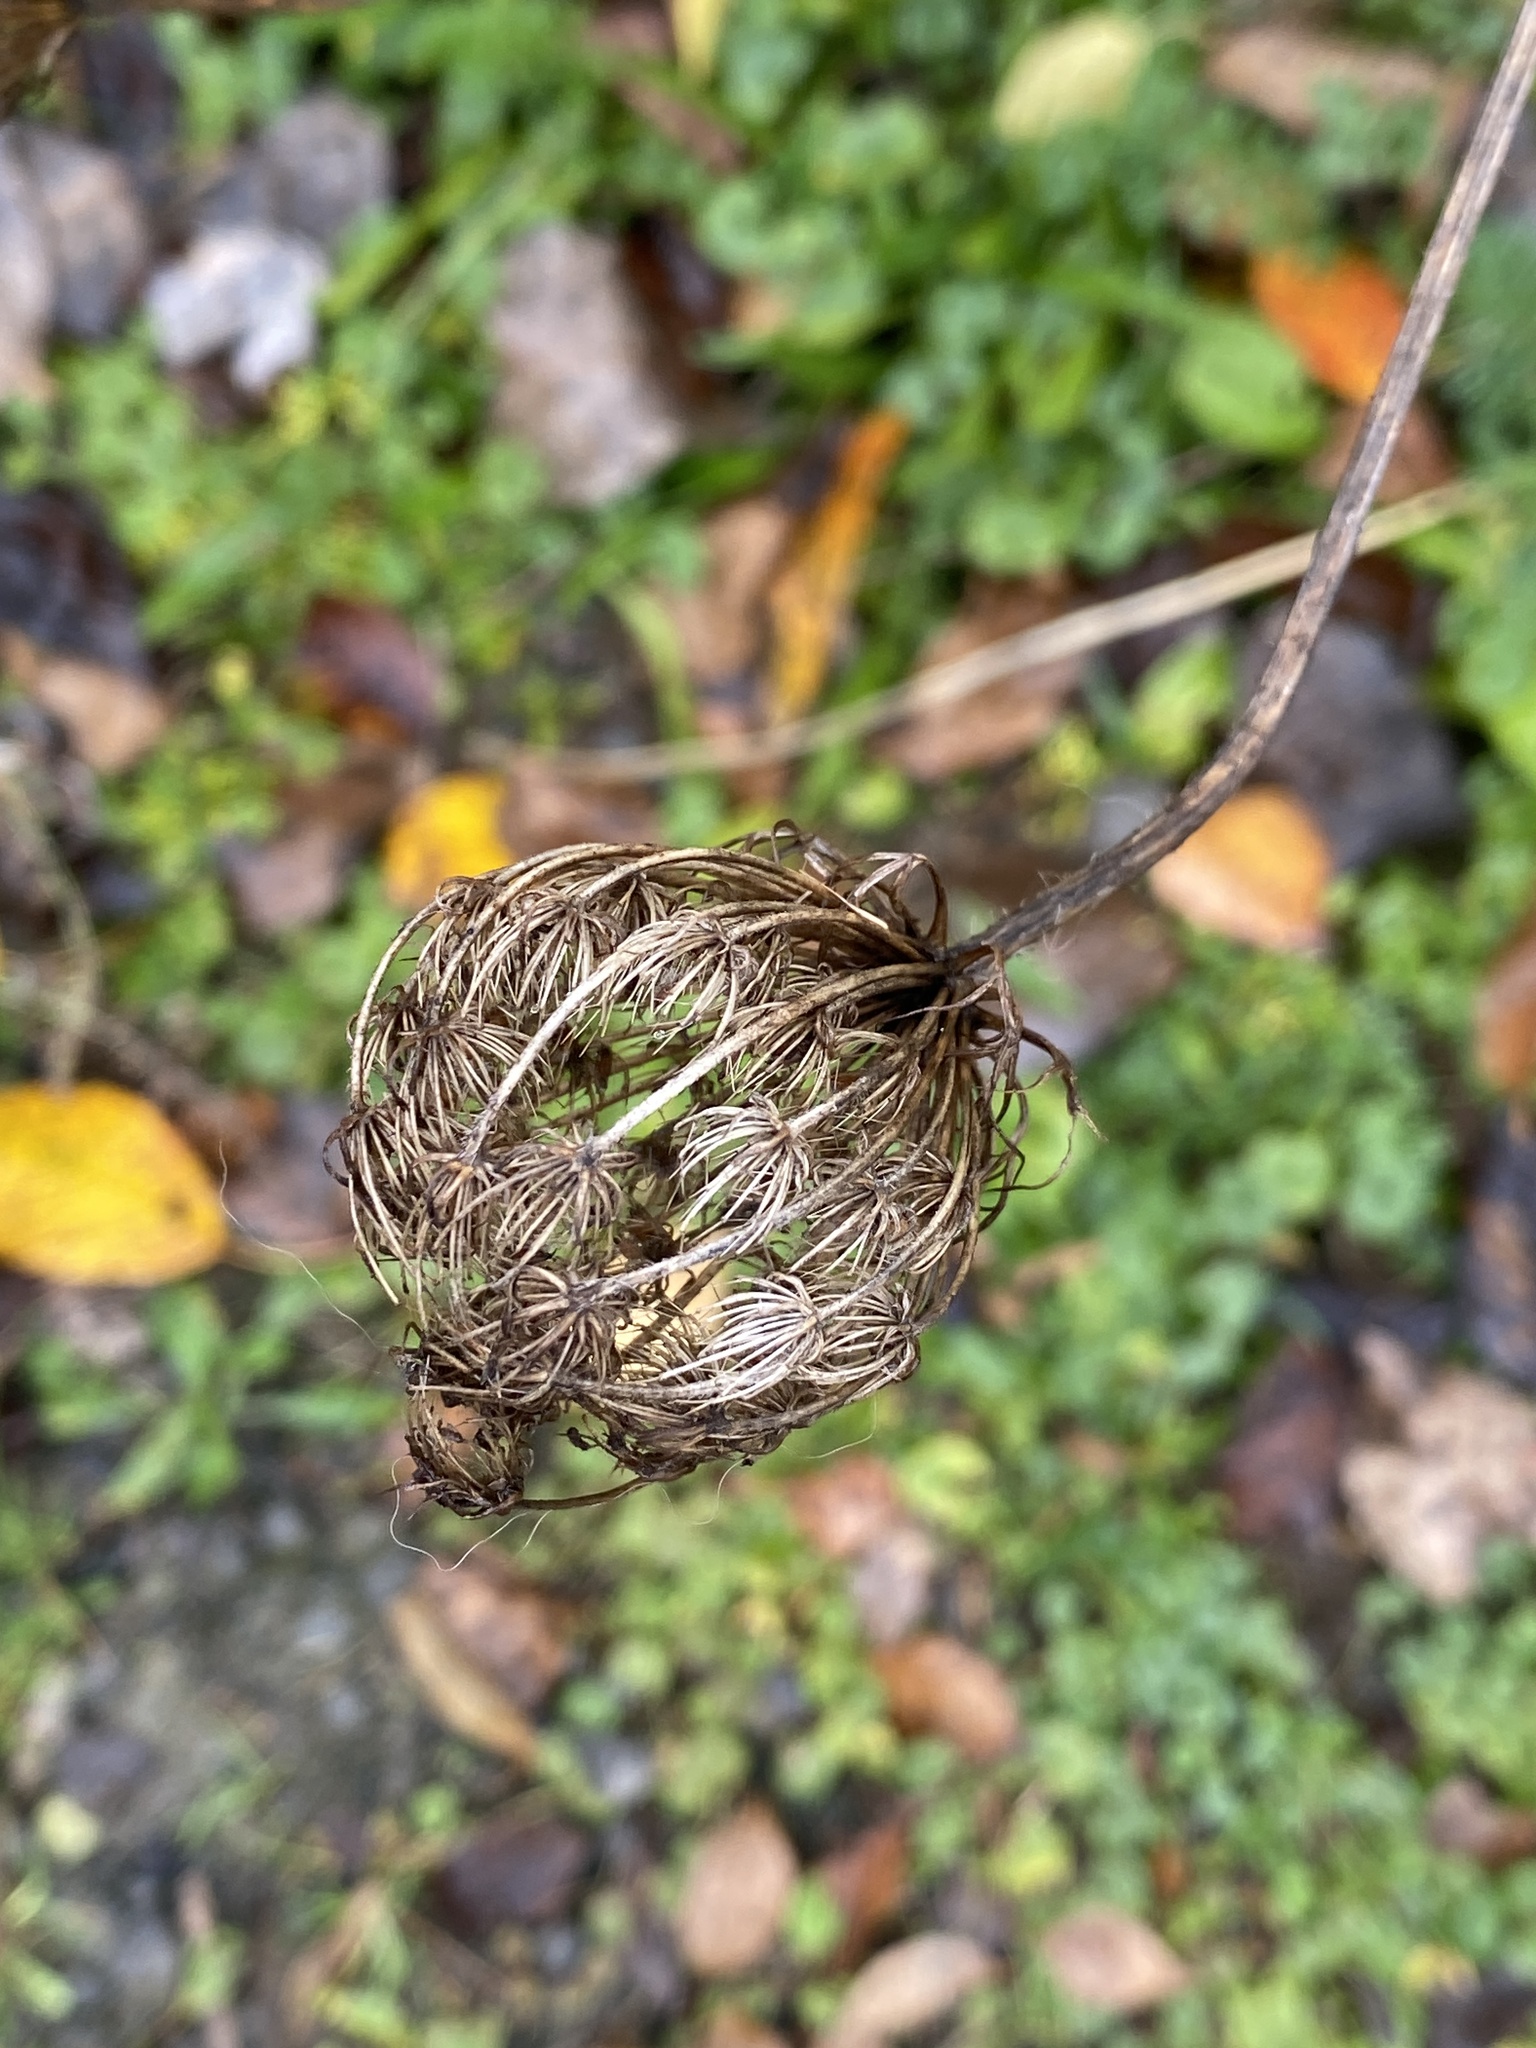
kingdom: Plantae
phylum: Tracheophyta
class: Magnoliopsida
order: Apiales
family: Apiaceae
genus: Daucus
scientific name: Daucus carota
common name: Wild carrot
